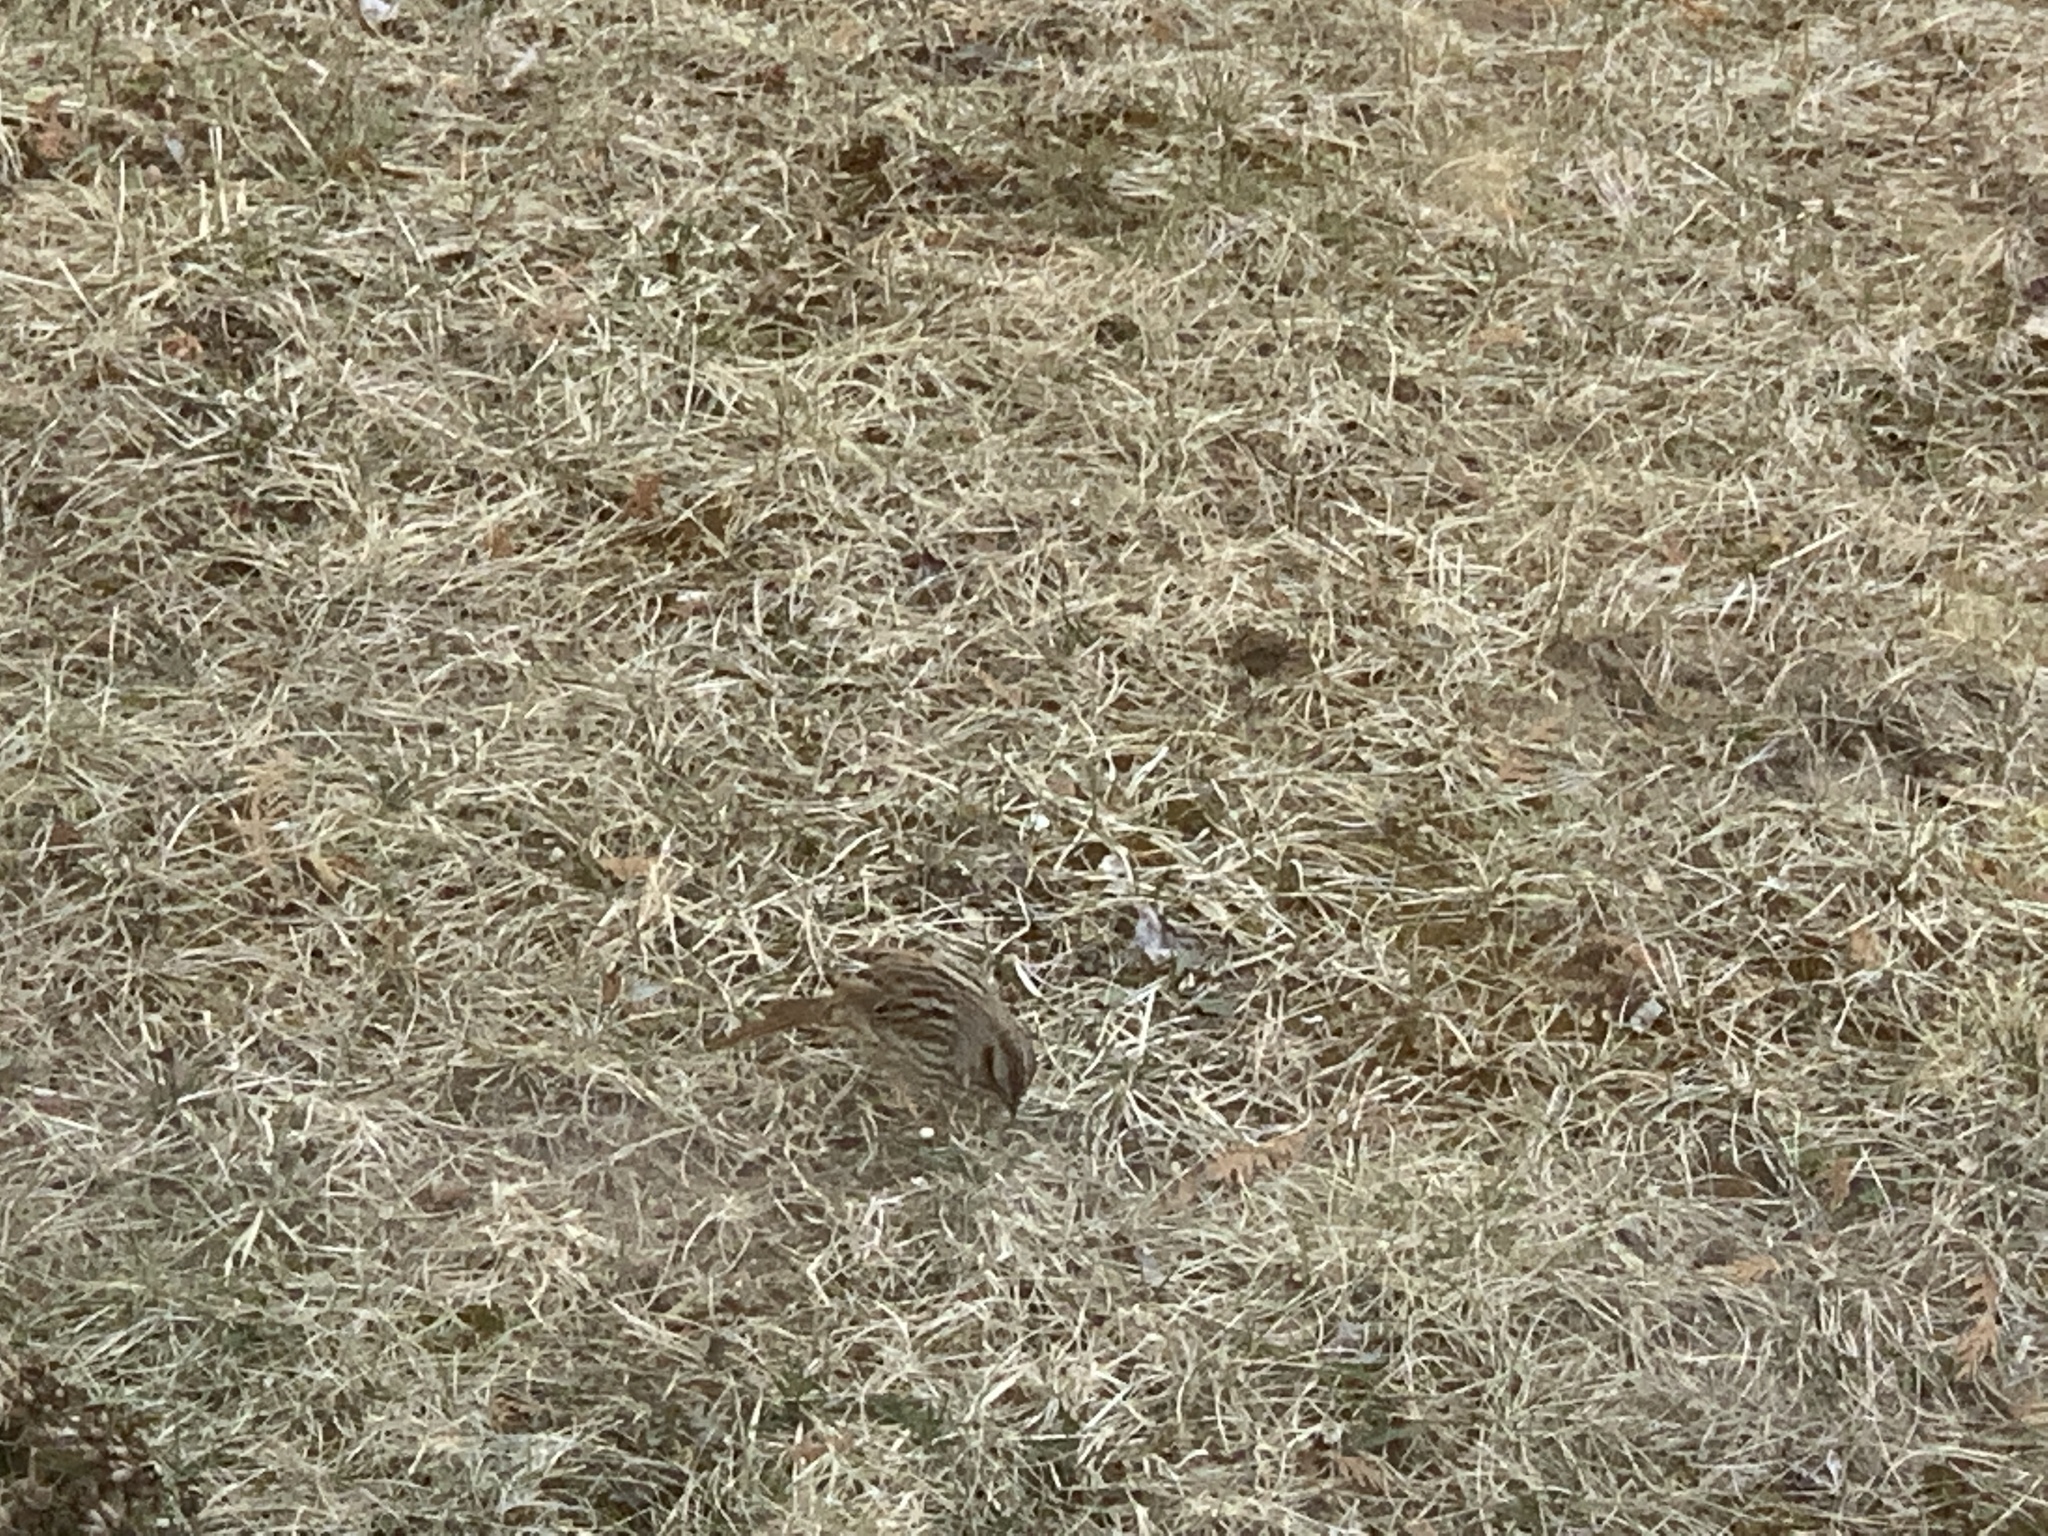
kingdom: Animalia
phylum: Chordata
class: Aves
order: Passeriformes
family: Passerellidae
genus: Melospiza
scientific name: Melospiza melodia
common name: Song sparrow
